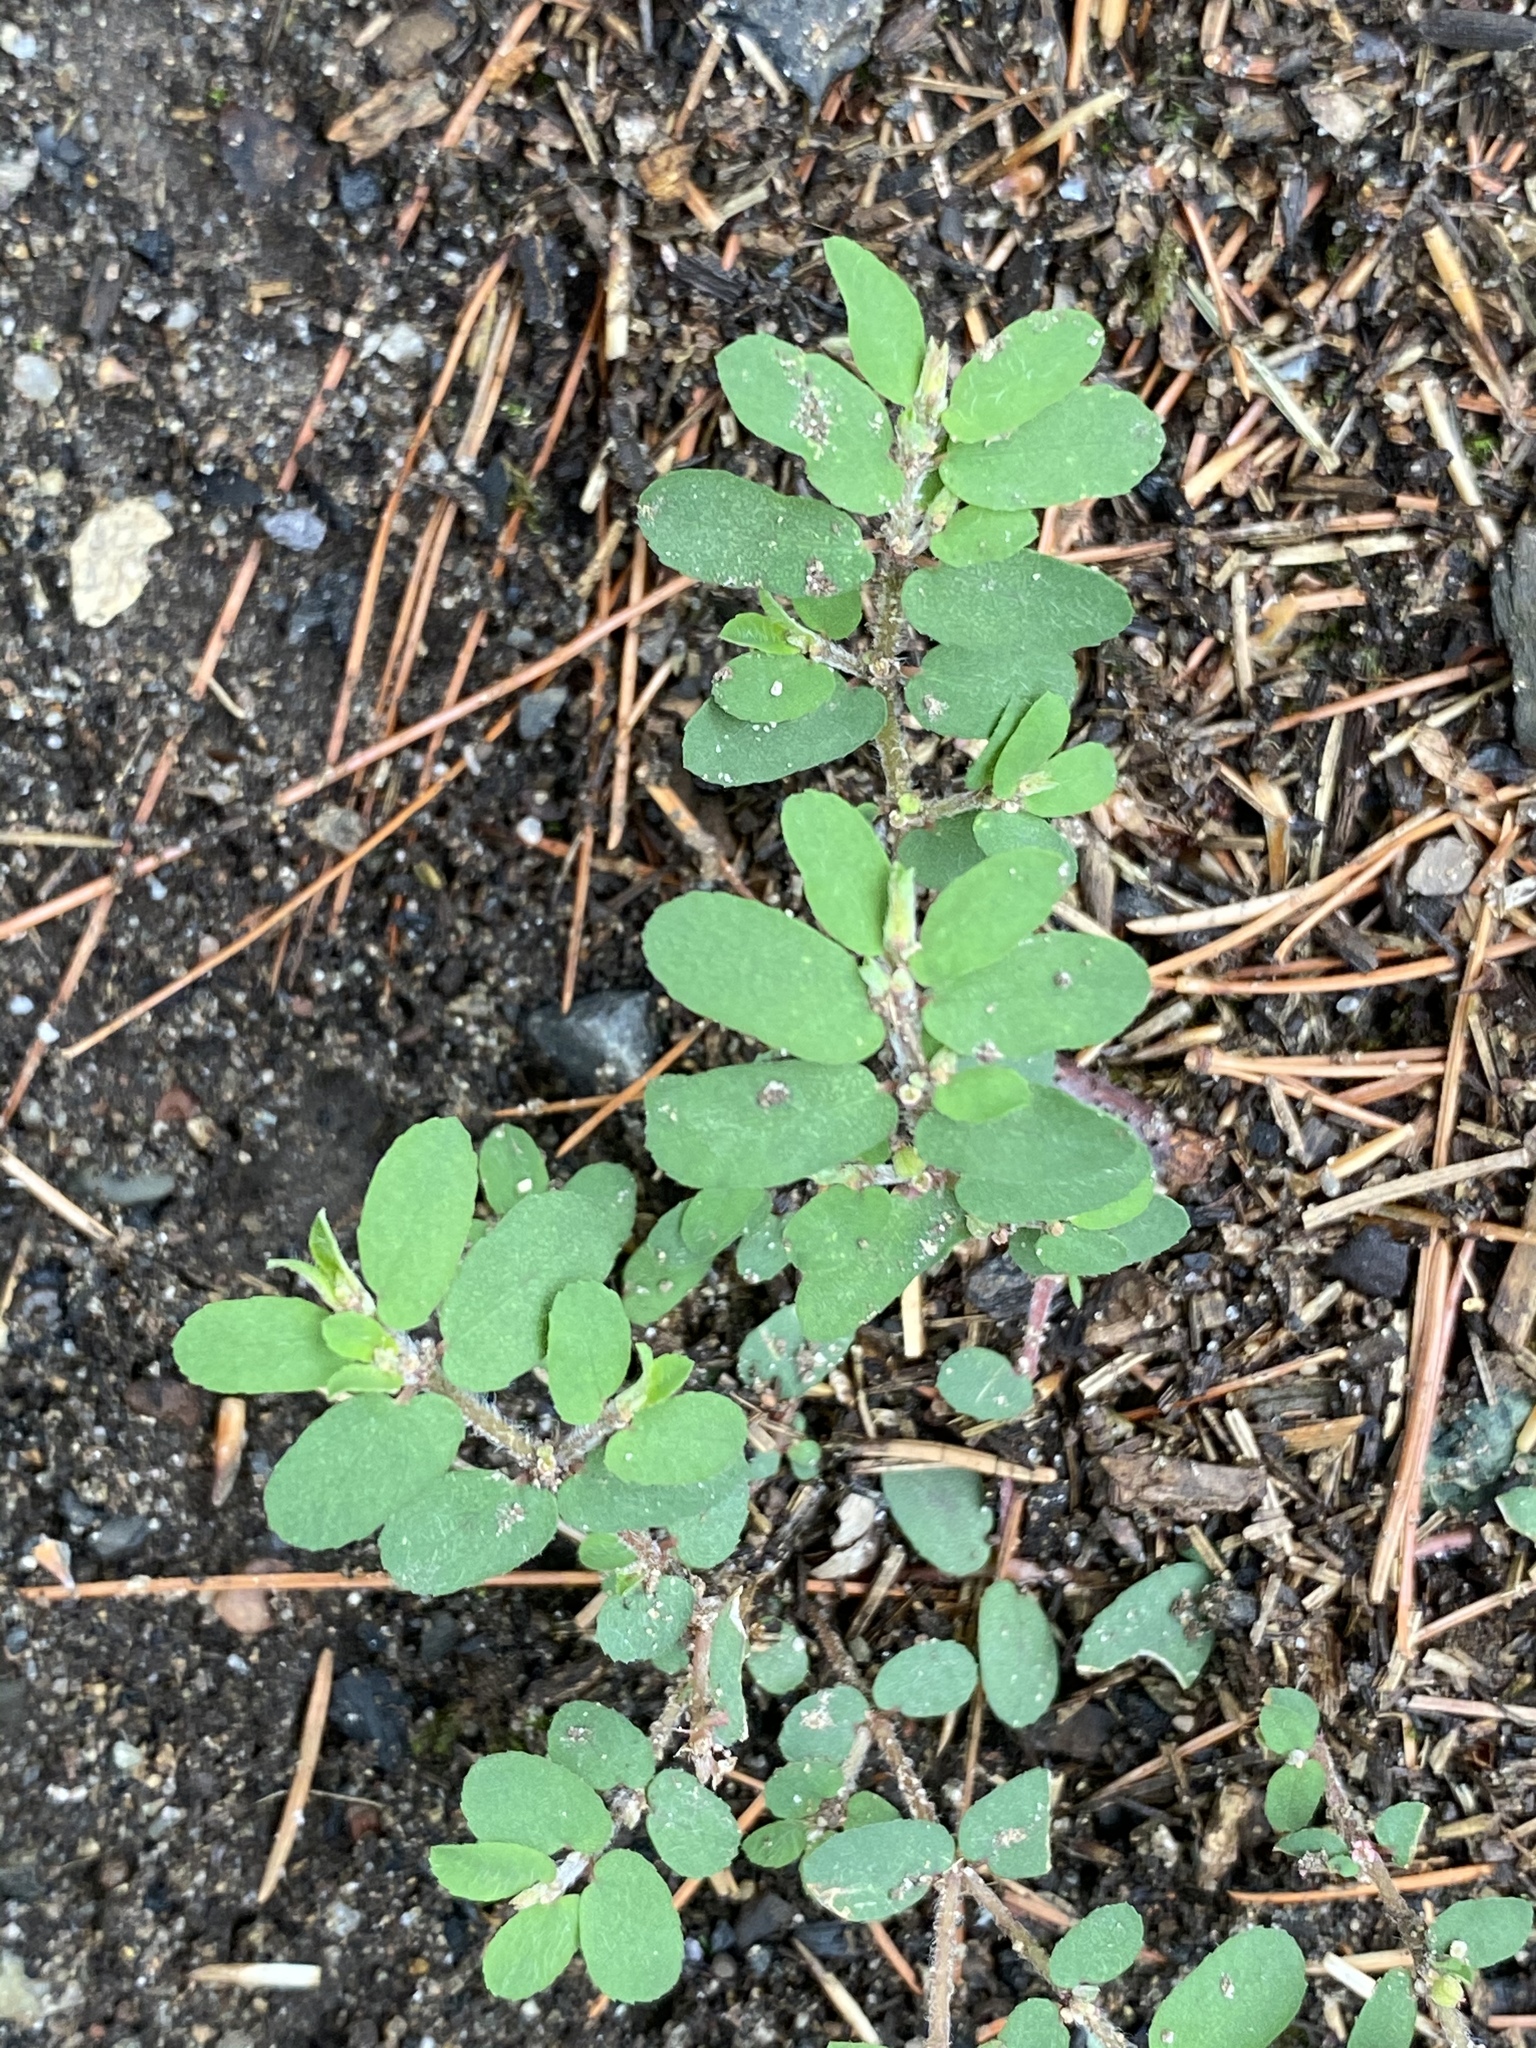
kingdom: Plantae
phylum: Tracheophyta
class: Magnoliopsida
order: Malpighiales
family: Euphorbiaceae
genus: Euphorbia
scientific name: Euphorbia maculata
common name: Spotted spurge
